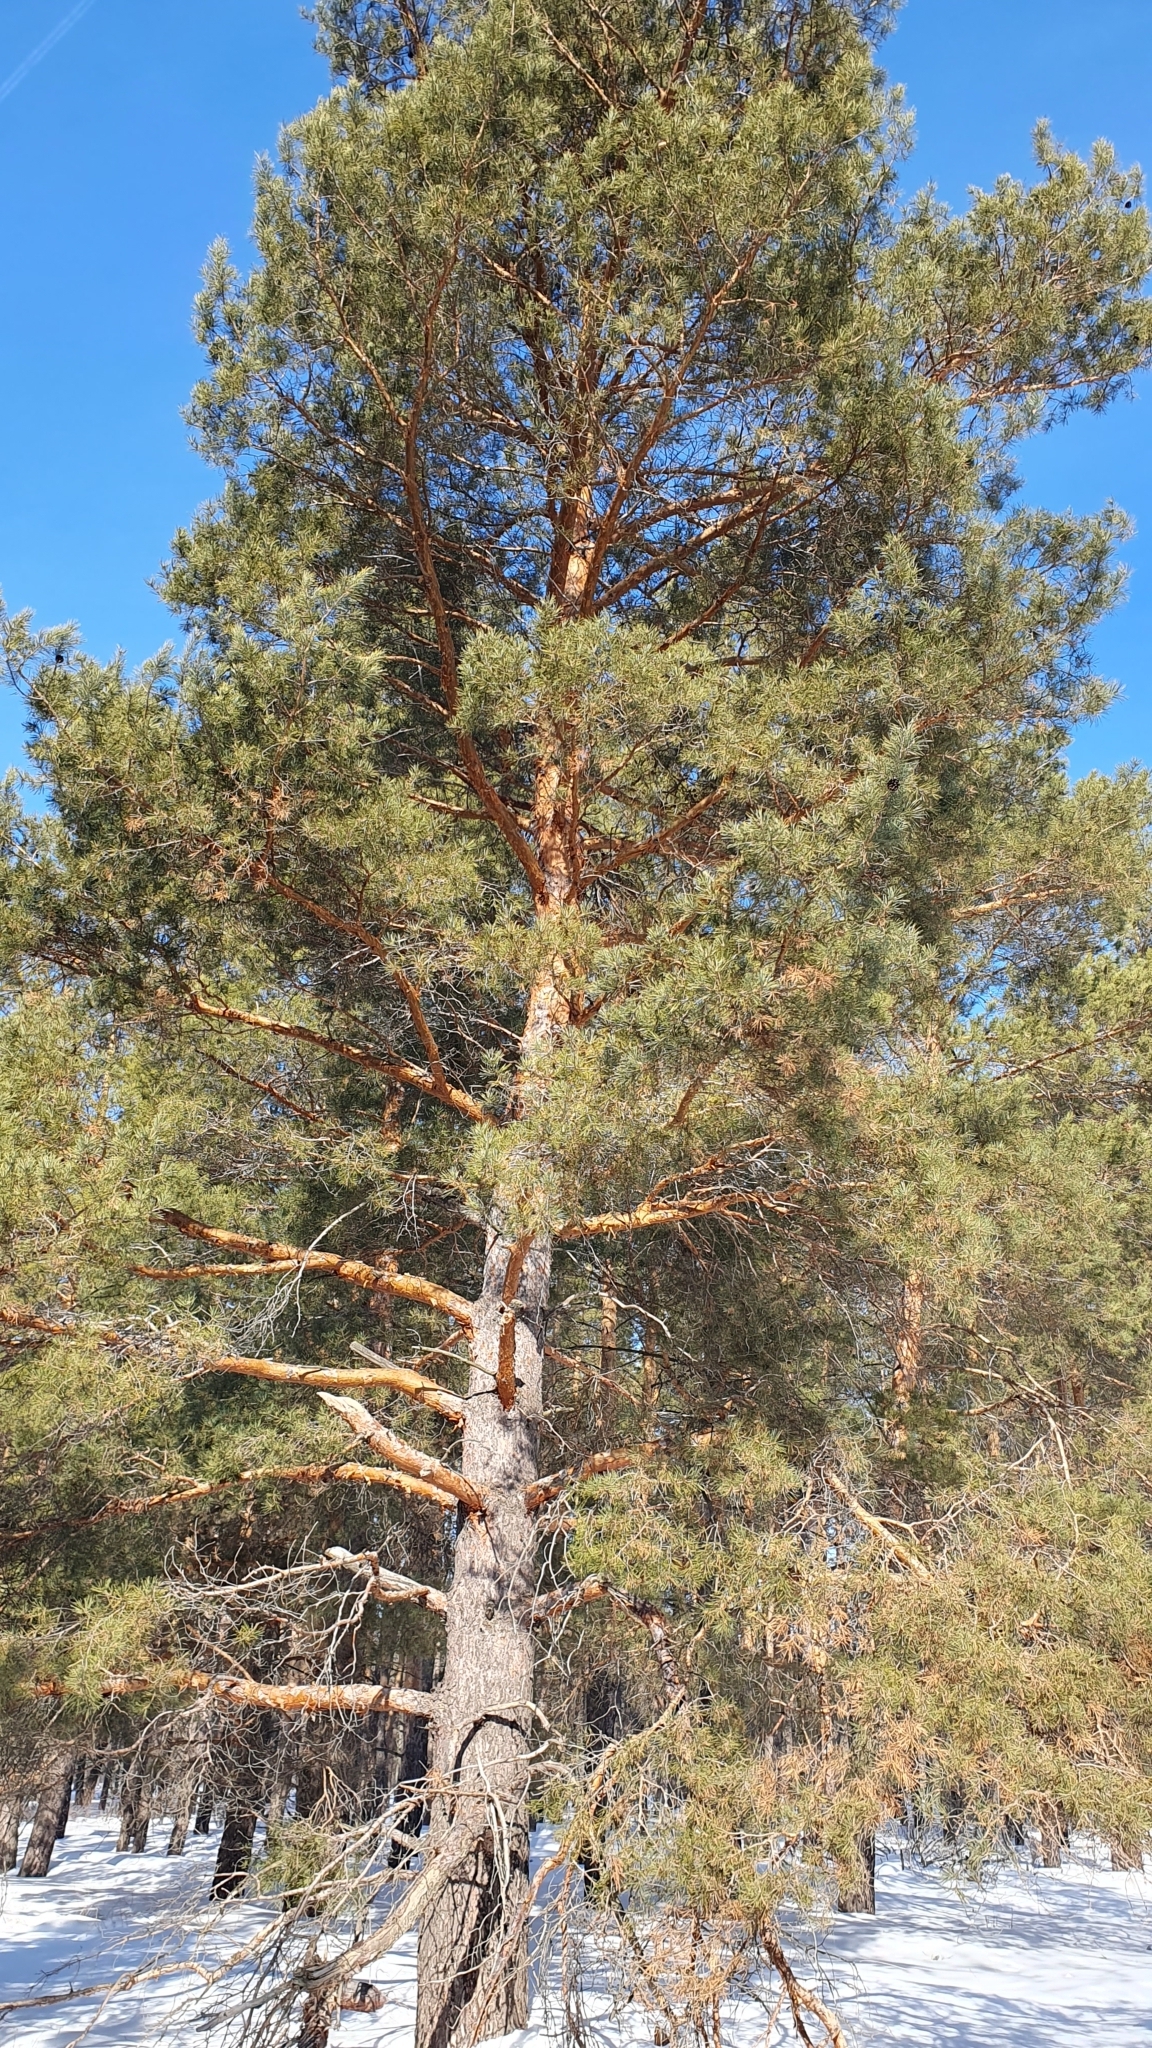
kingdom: Plantae
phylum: Tracheophyta
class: Pinopsida
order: Pinales
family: Pinaceae
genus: Pinus
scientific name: Pinus sylvestris
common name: Scots pine
